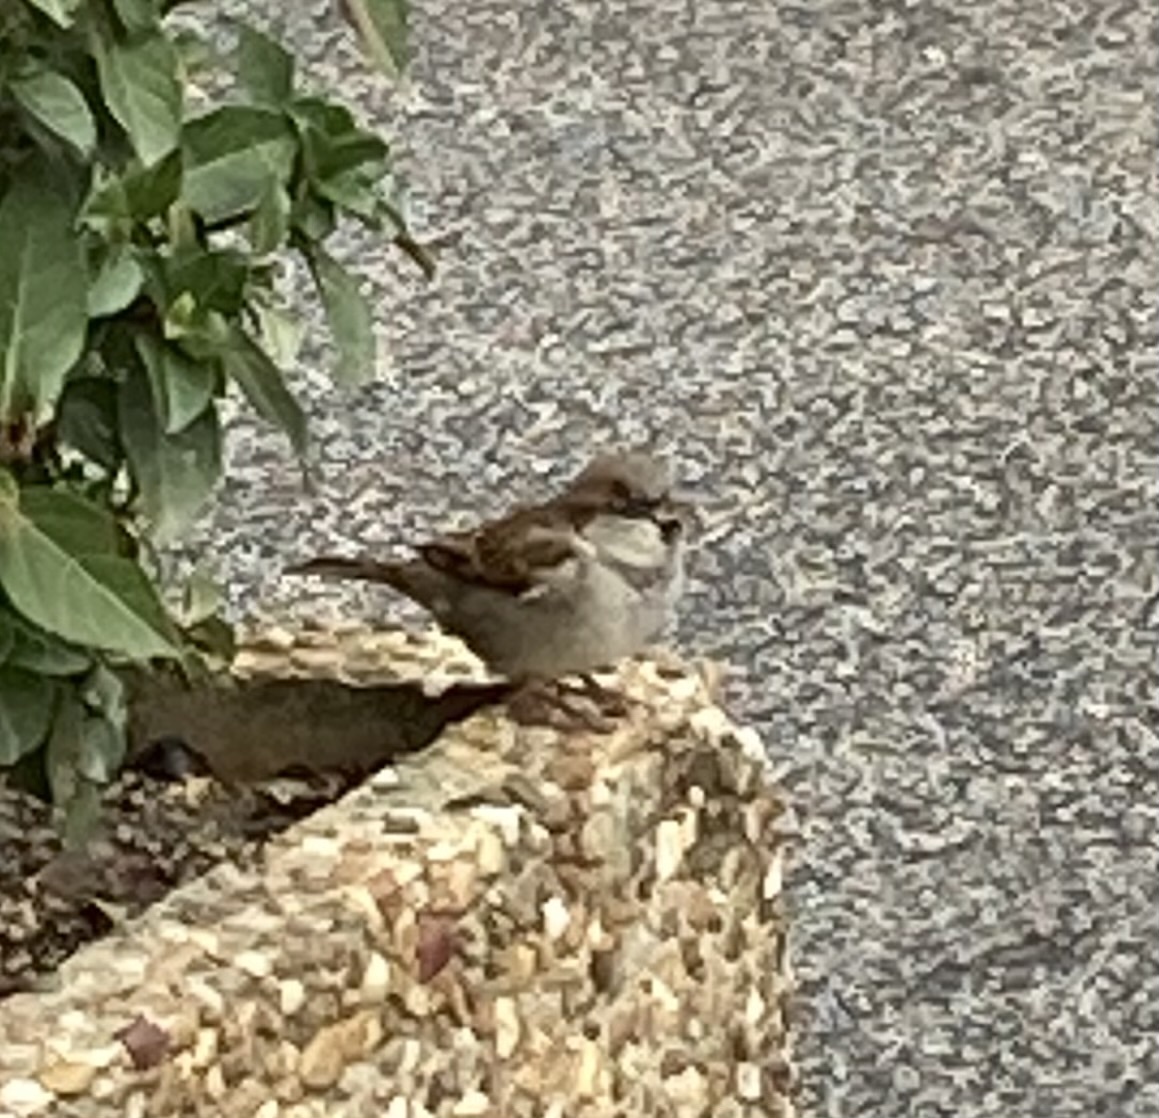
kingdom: Animalia
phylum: Chordata
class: Aves
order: Passeriformes
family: Passeridae
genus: Passer
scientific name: Passer domesticus
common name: House sparrow
